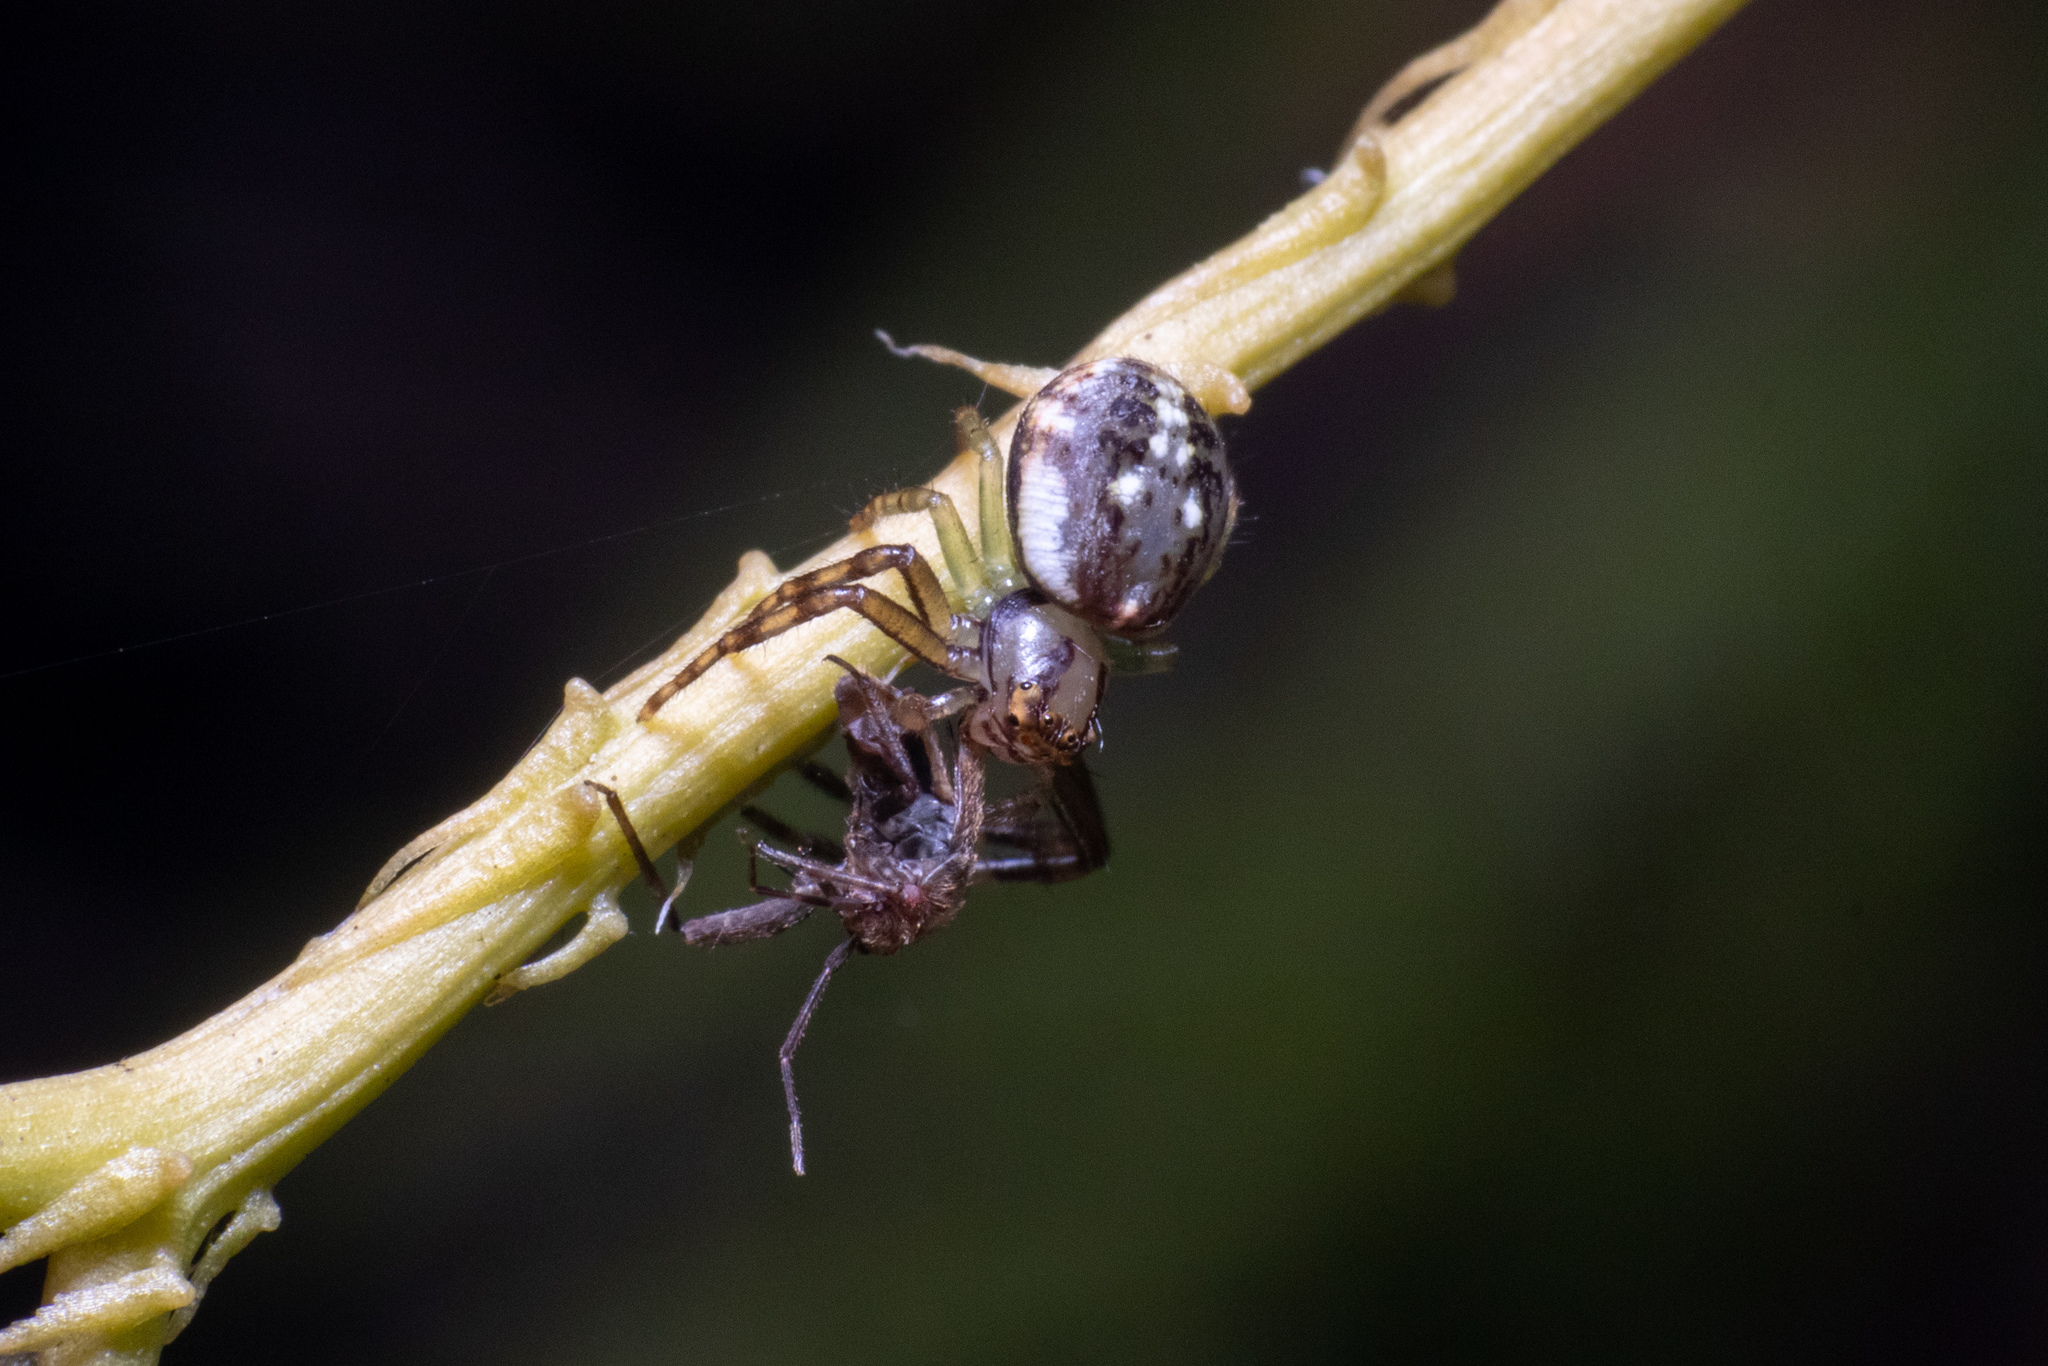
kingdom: Animalia
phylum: Arthropoda
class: Arachnida
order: Araneae
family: Thomisidae
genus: Diaea
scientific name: Diaea ambara
